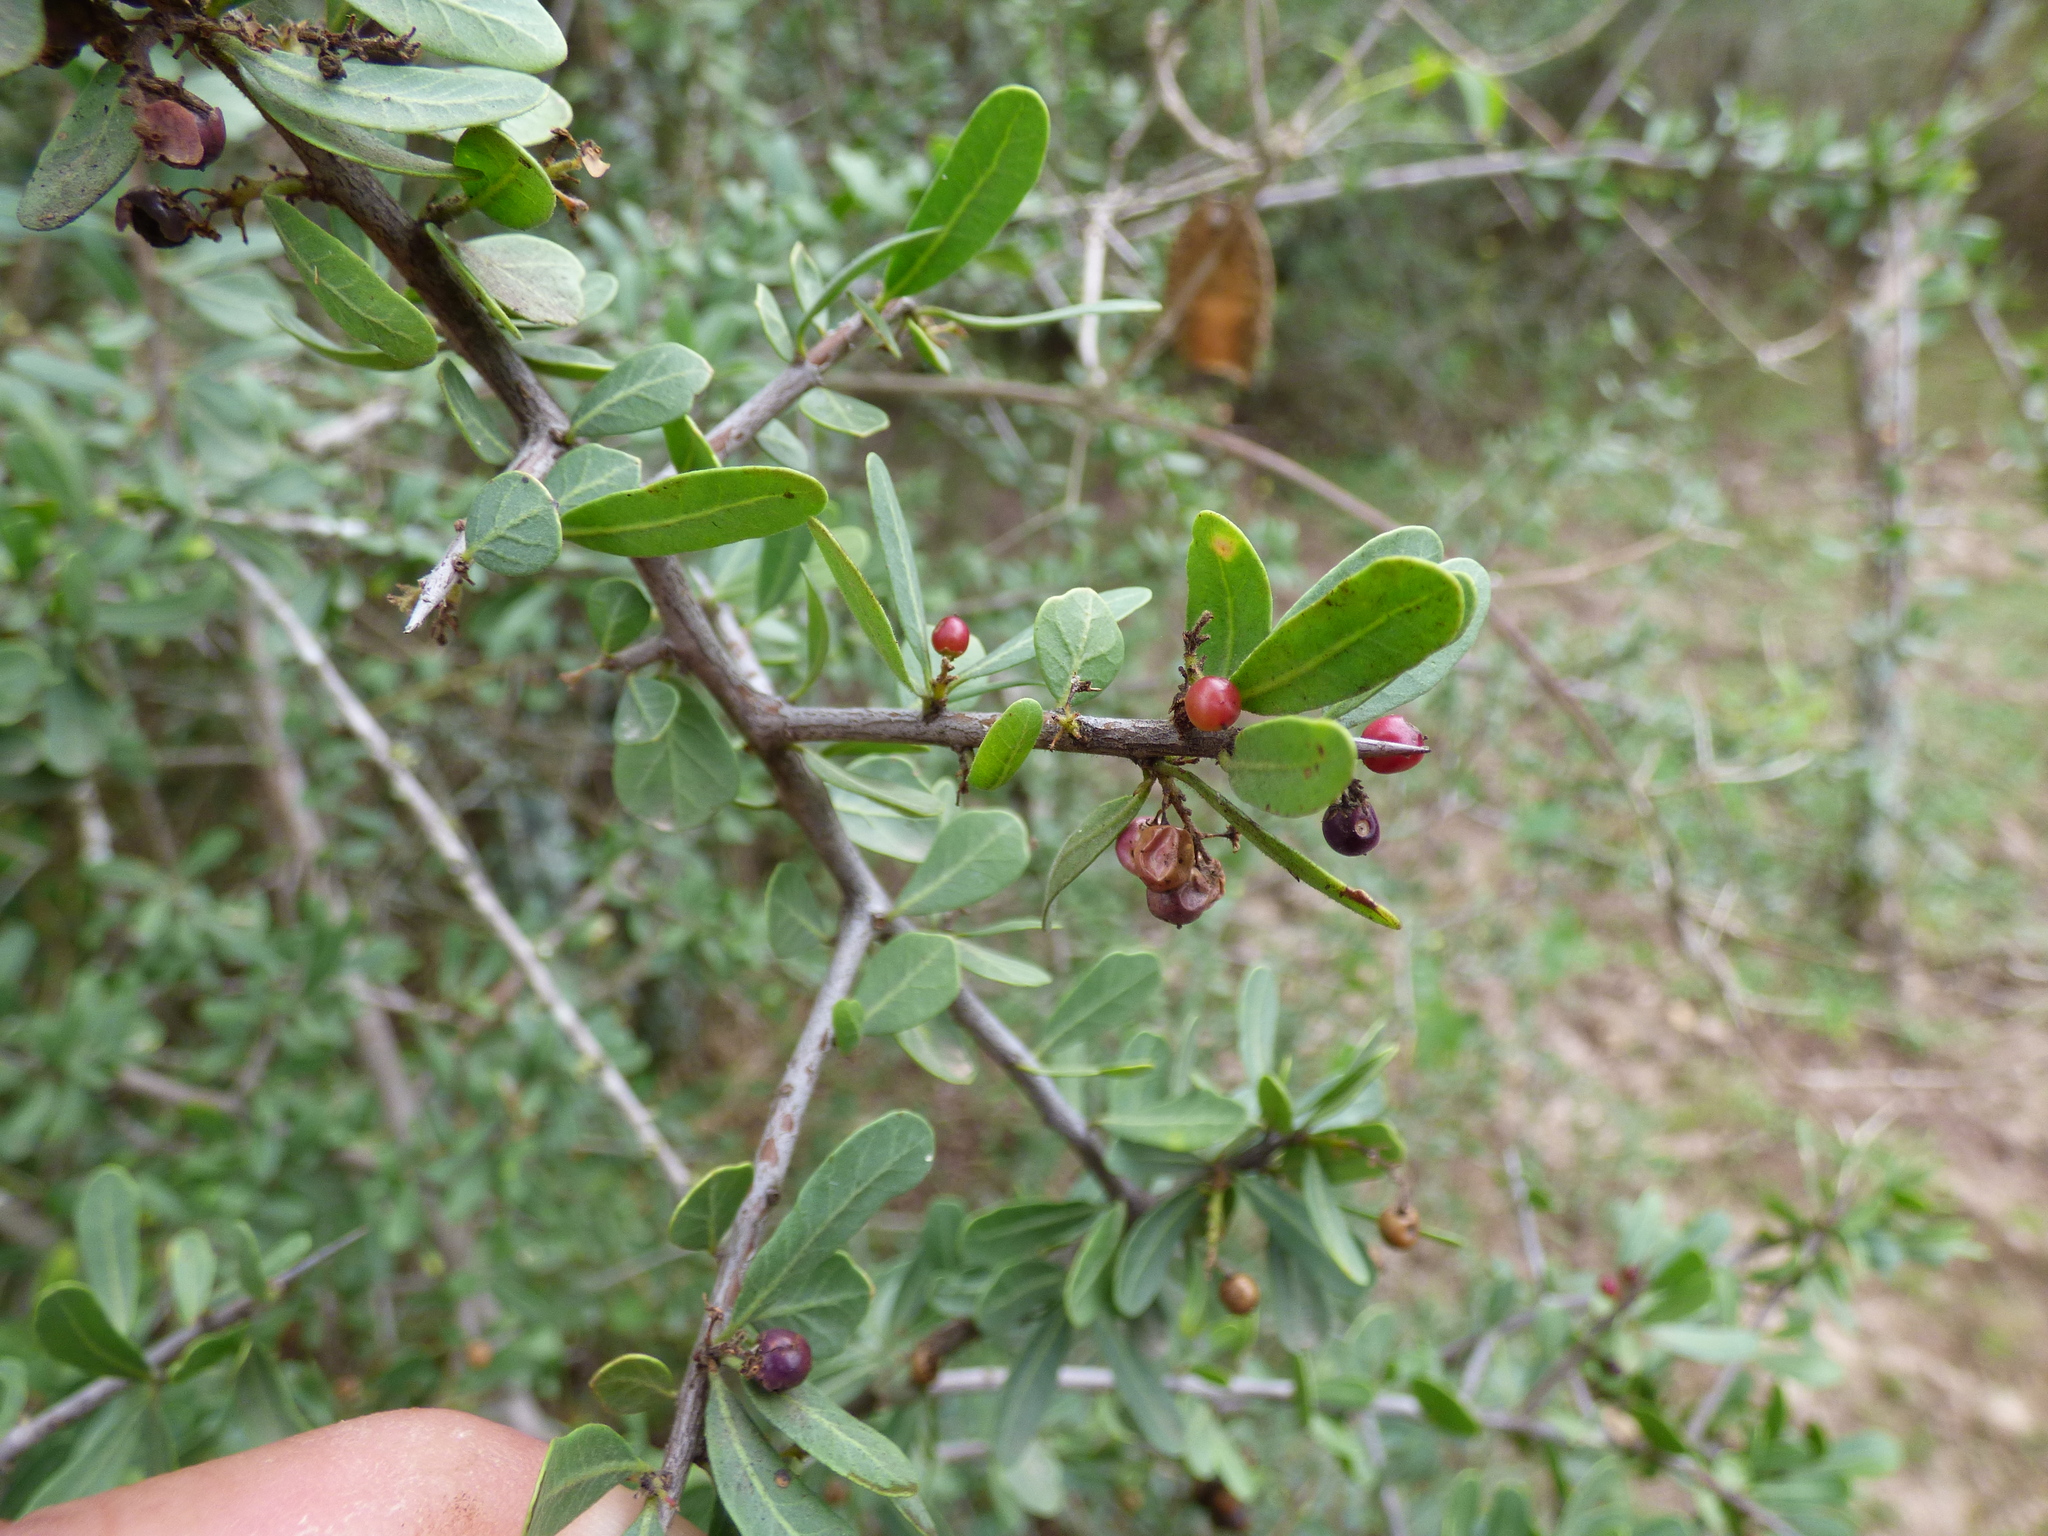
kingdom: Plantae
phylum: Tracheophyta
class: Magnoliopsida
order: Sapindales
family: Anacardiaceae
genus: Schinus
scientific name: Schinus fasciculata
